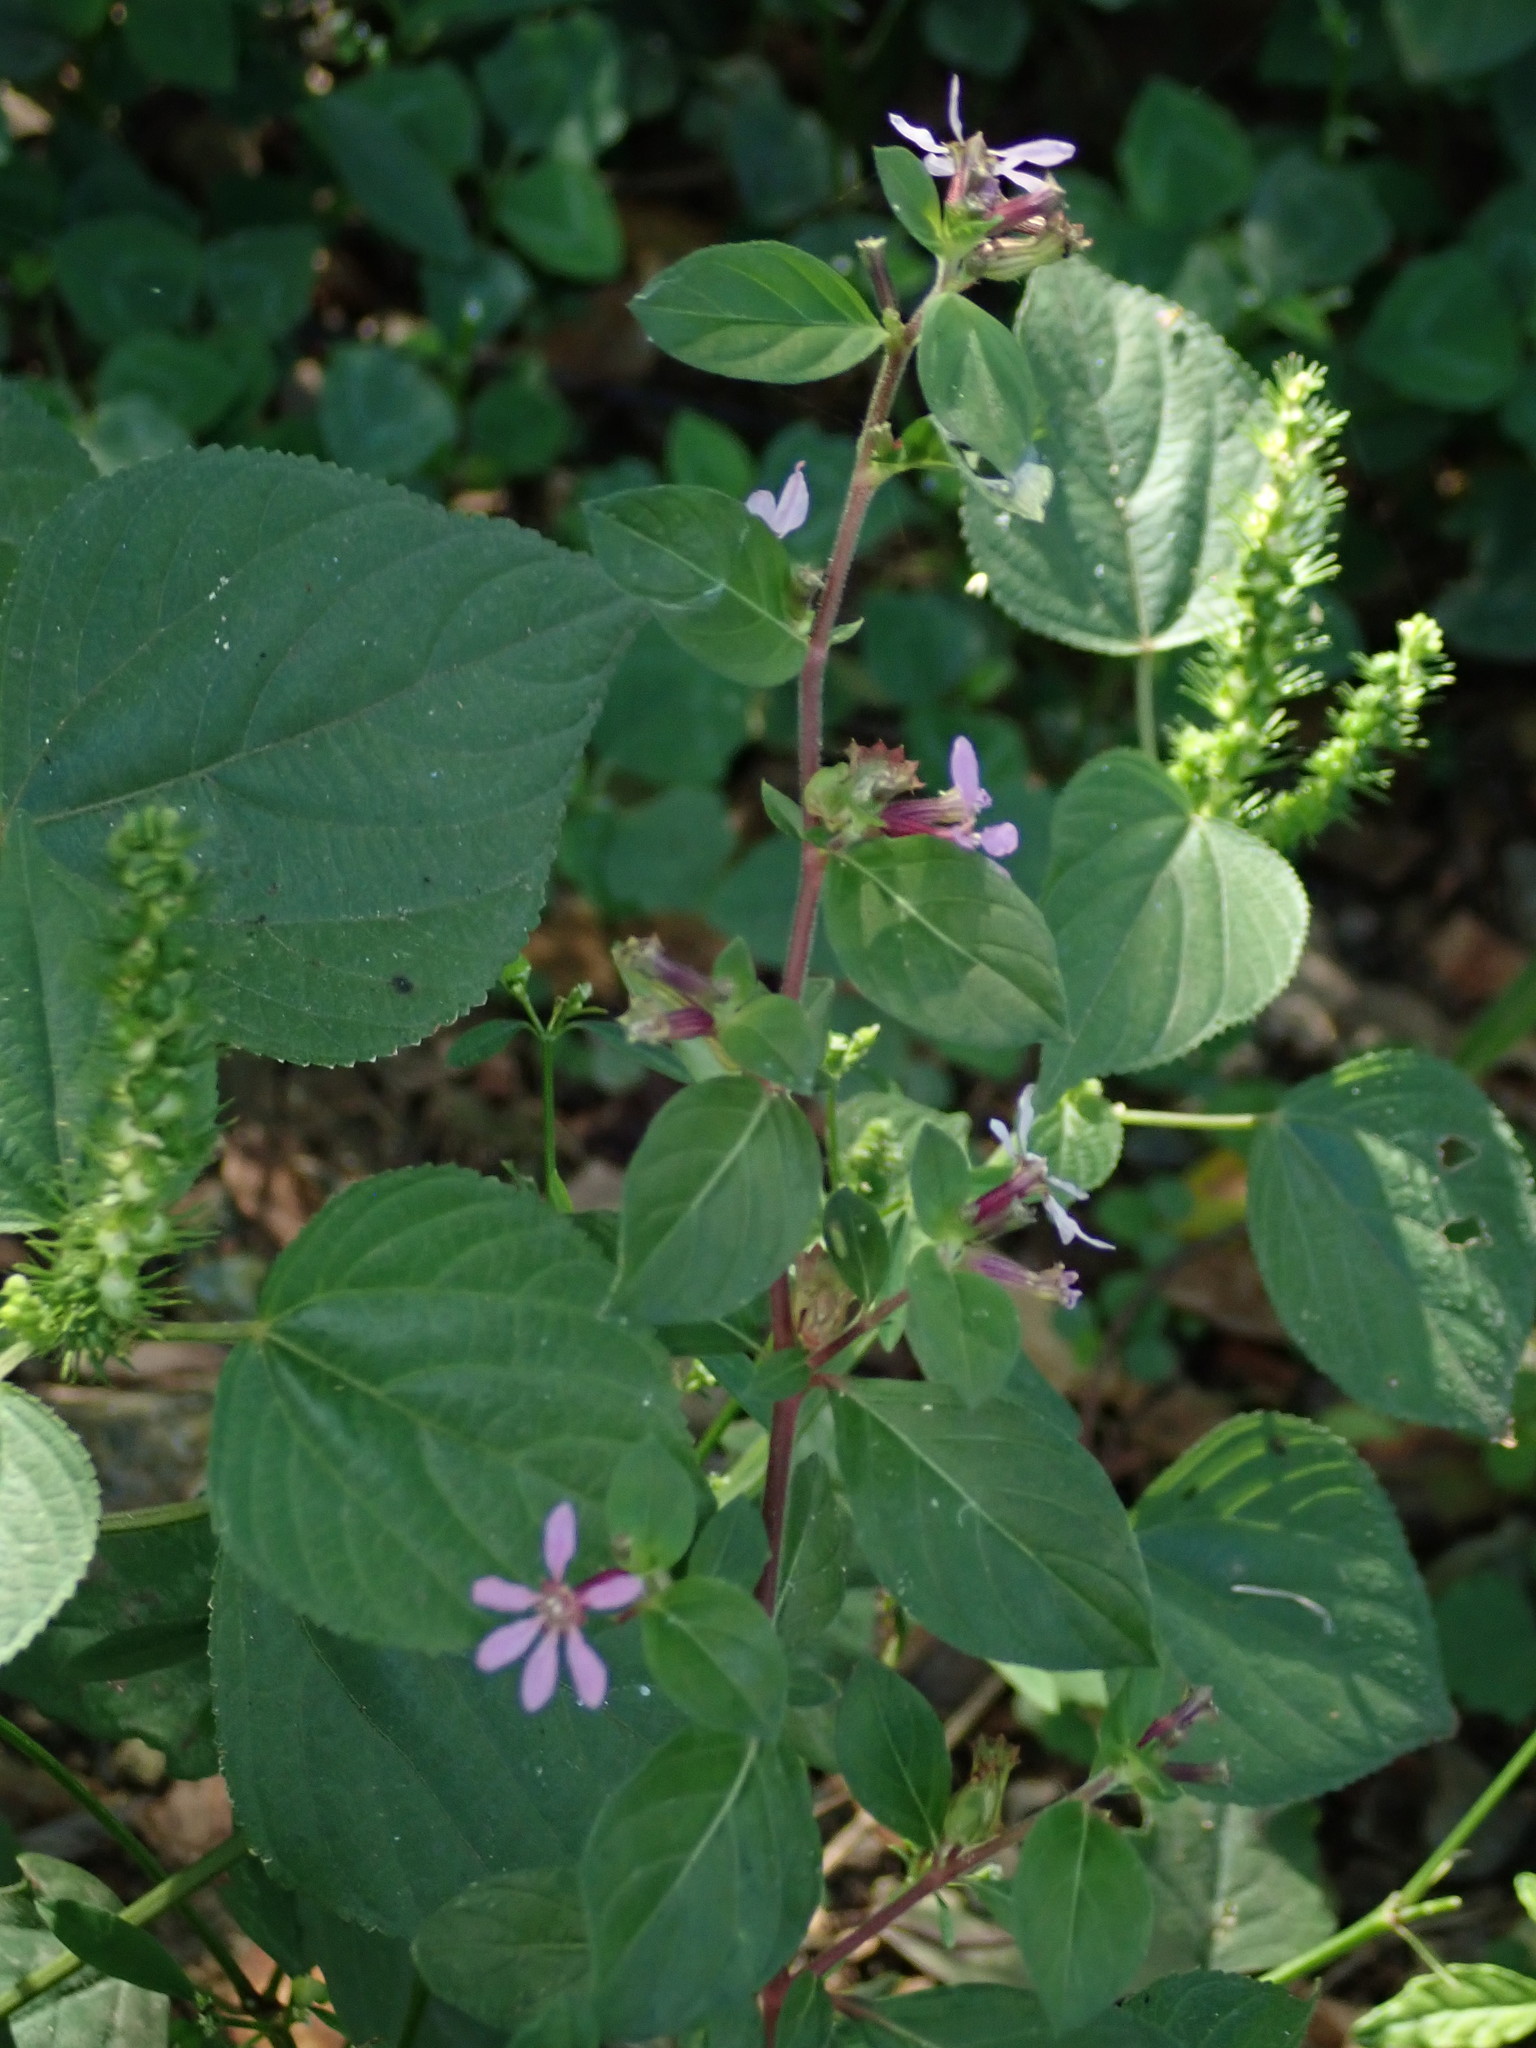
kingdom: Plantae
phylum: Tracheophyta
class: Magnoliopsida
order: Myrtales
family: Lythraceae
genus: Cuphea
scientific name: Cuphea strigulosa
